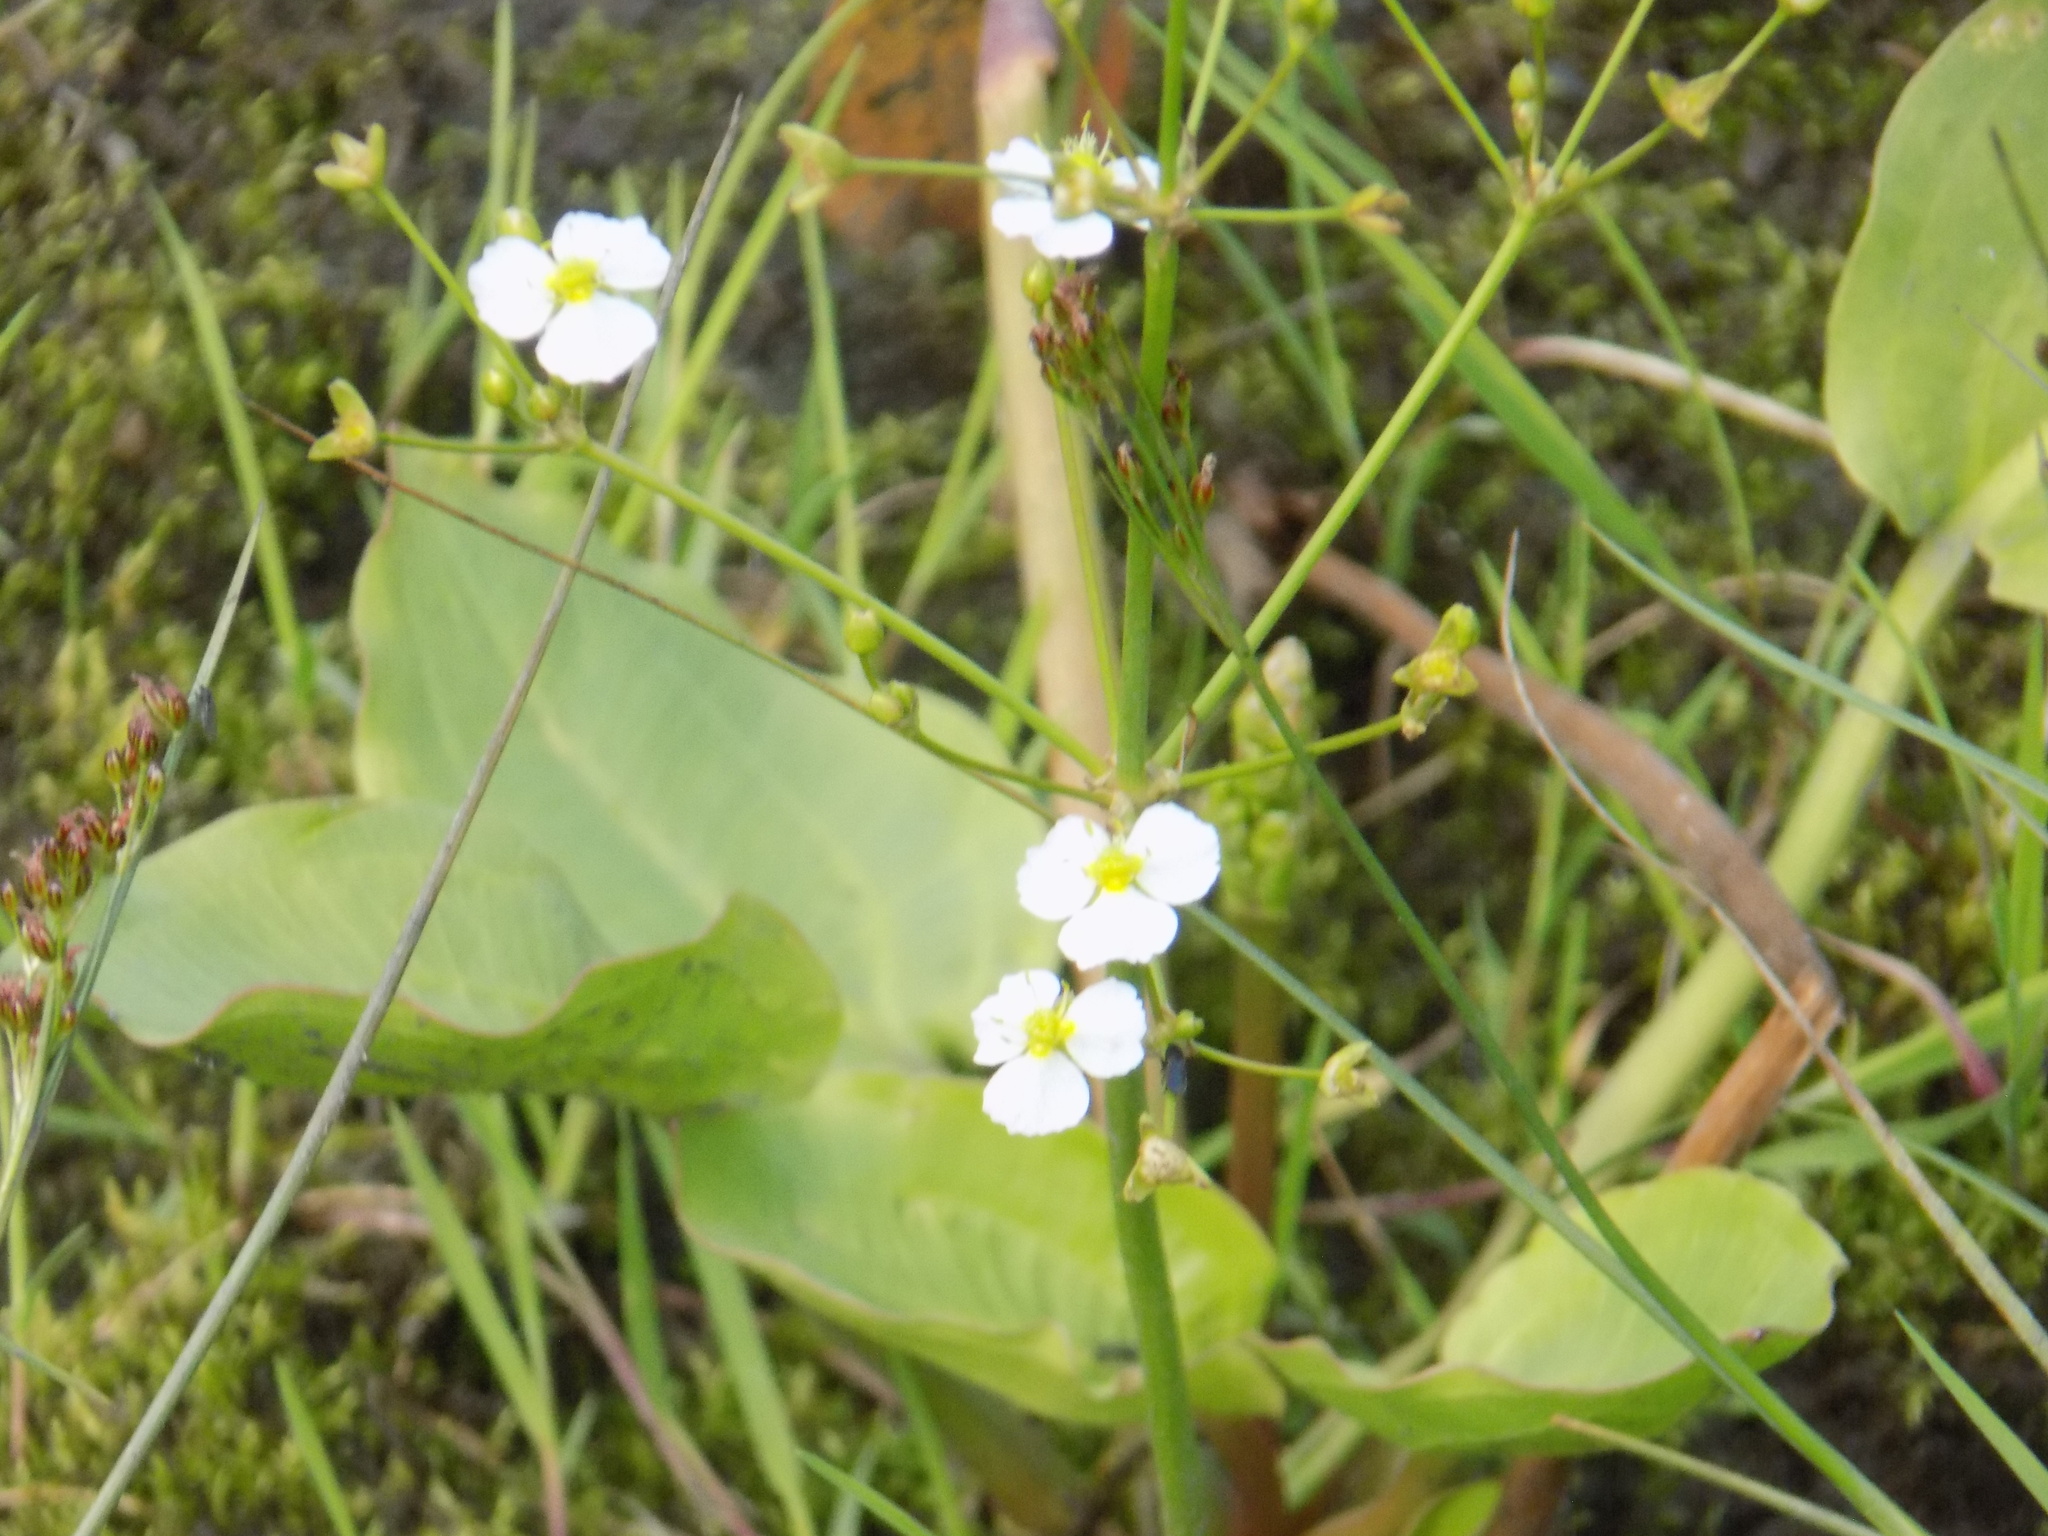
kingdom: Plantae
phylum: Tracheophyta
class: Liliopsida
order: Alismatales
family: Alismataceae
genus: Alisma
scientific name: Alisma plantago-aquatica
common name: Water-plantain
